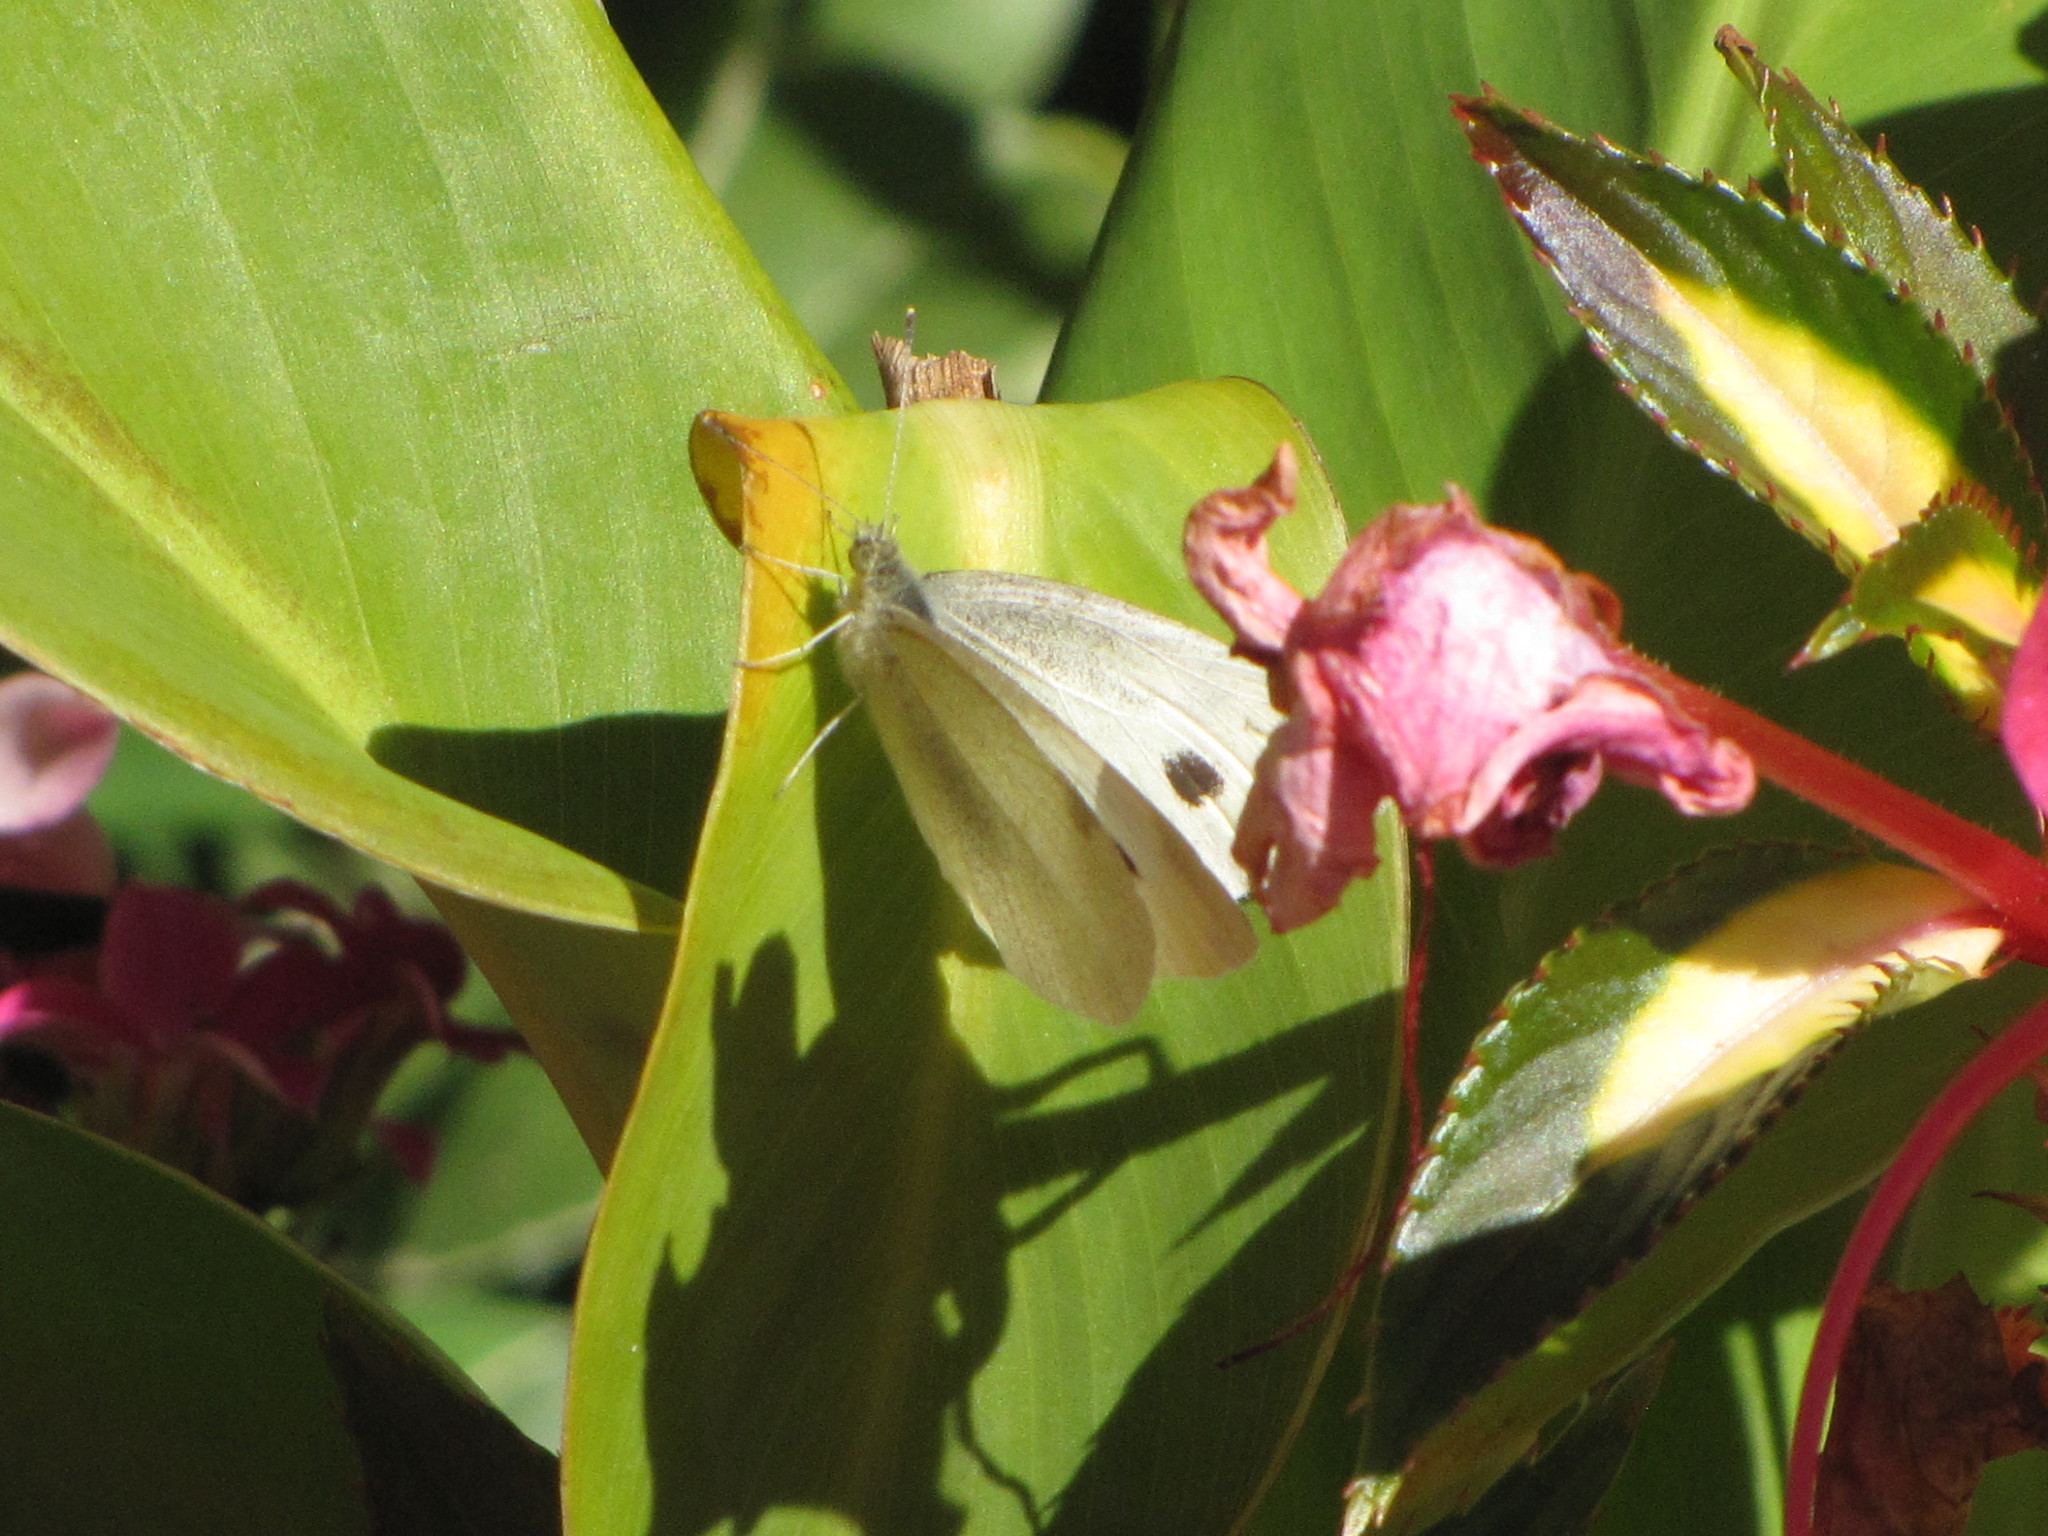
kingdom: Animalia
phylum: Arthropoda
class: Insecta
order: Lepidoptera
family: Pieridae
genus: Pieris
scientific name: Pieris rapae
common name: Small white
